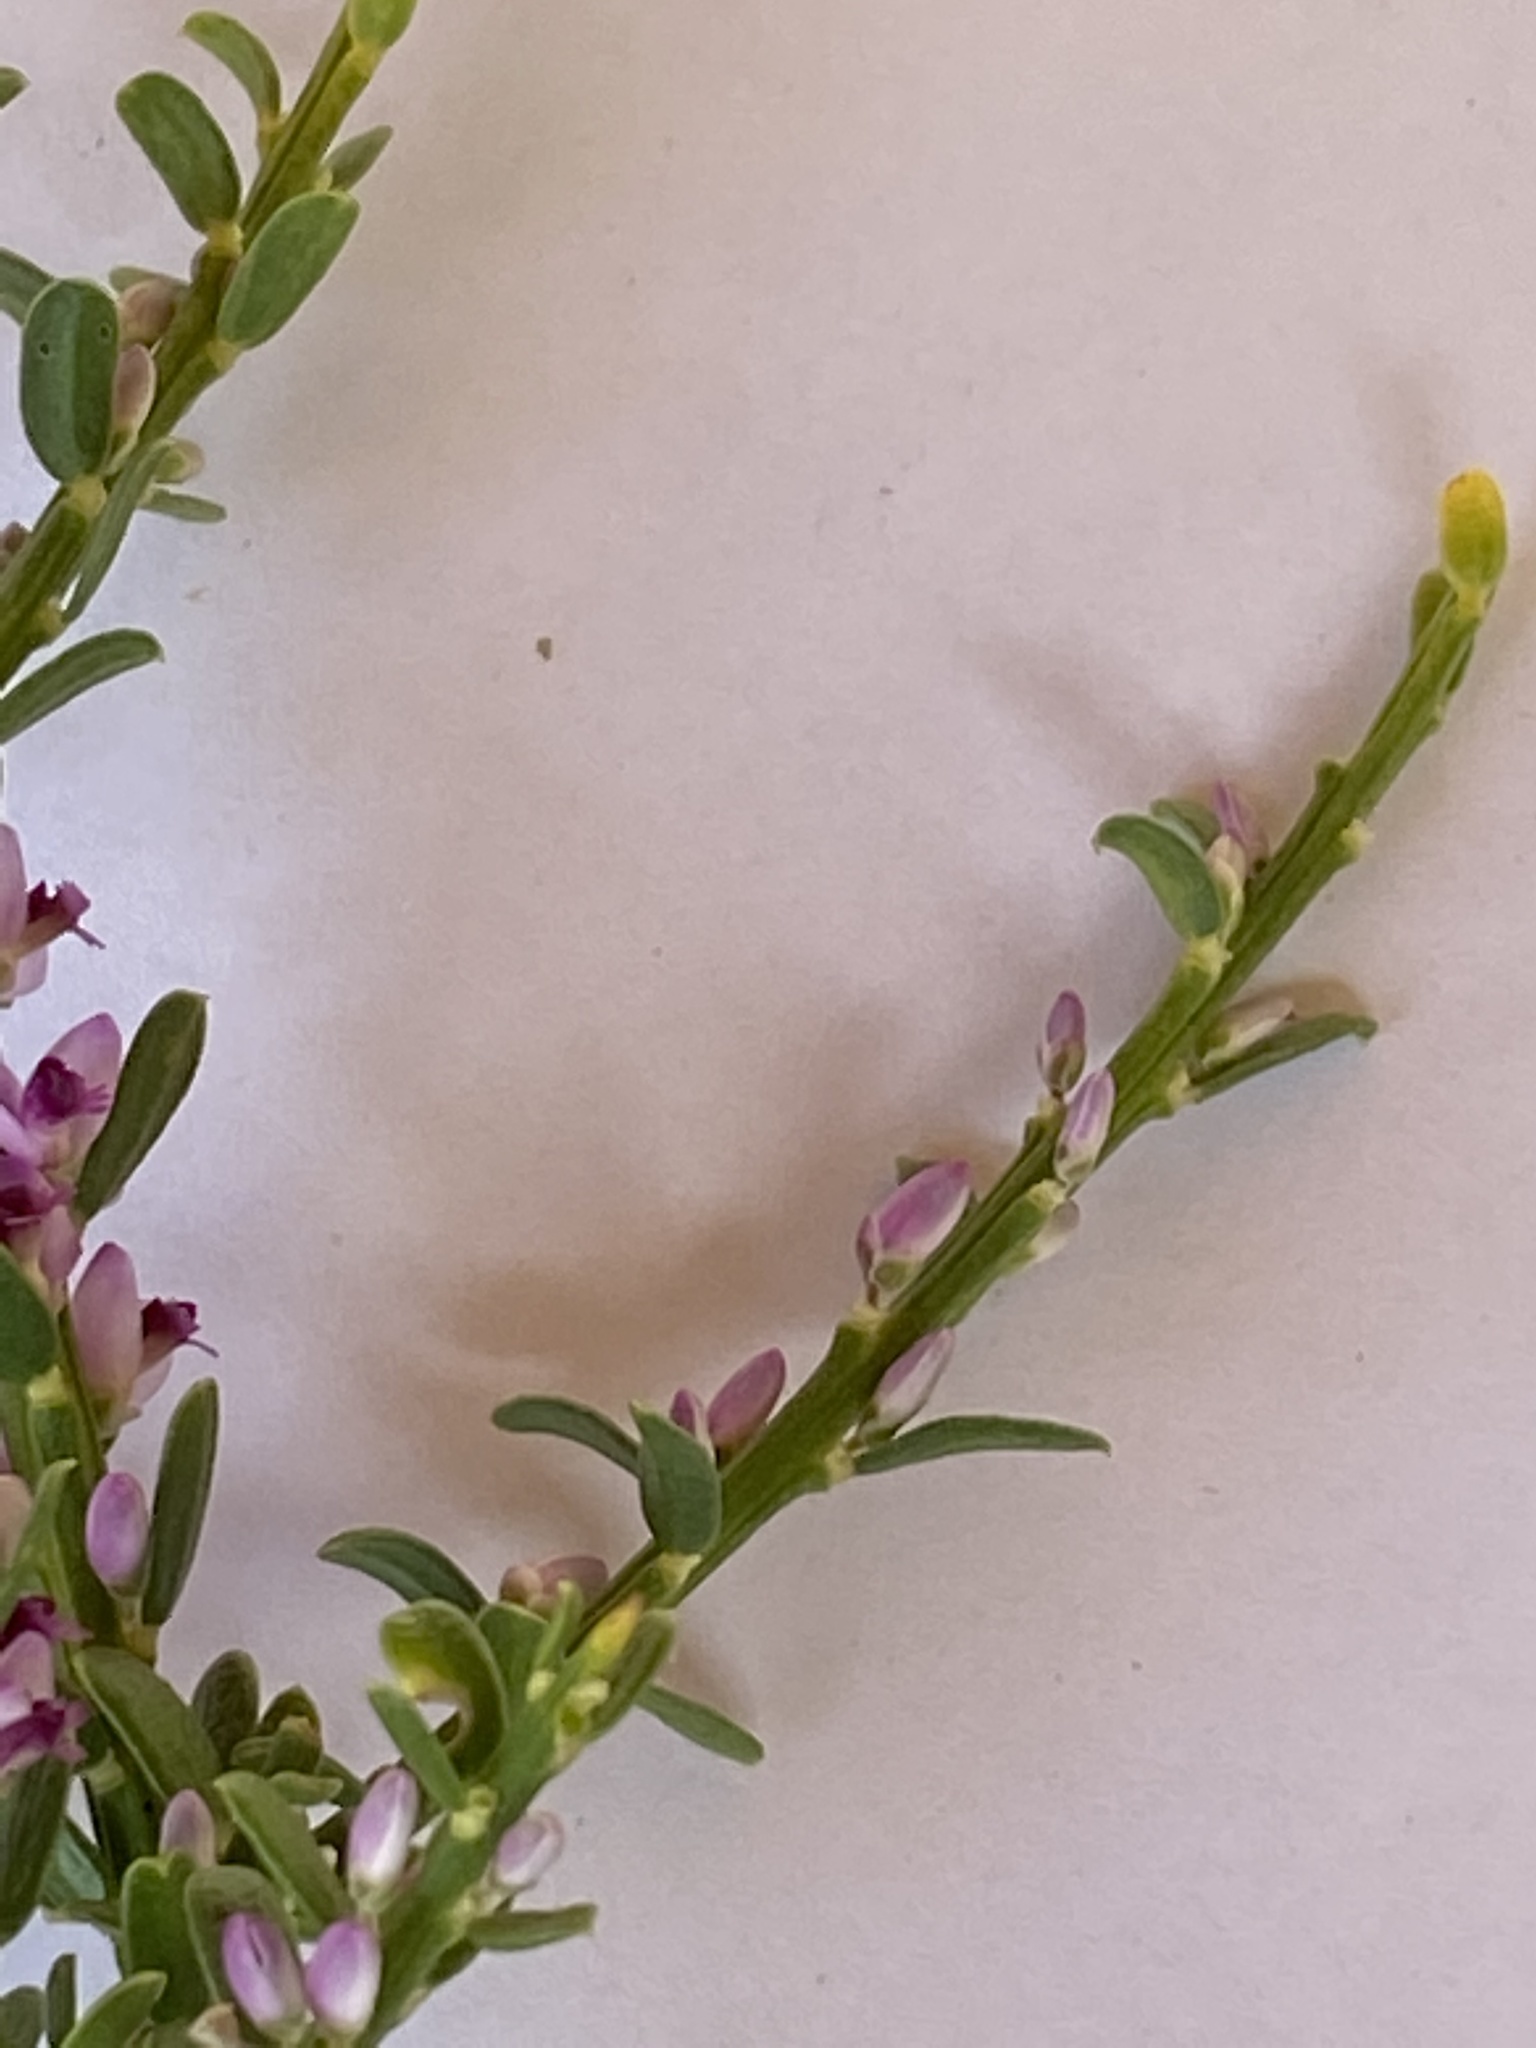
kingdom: Plantae
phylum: Tracheophyta
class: Magnoliopsida
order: Fabales
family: Polygalaceae
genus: Muraltia
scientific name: Muraltia spinosa
